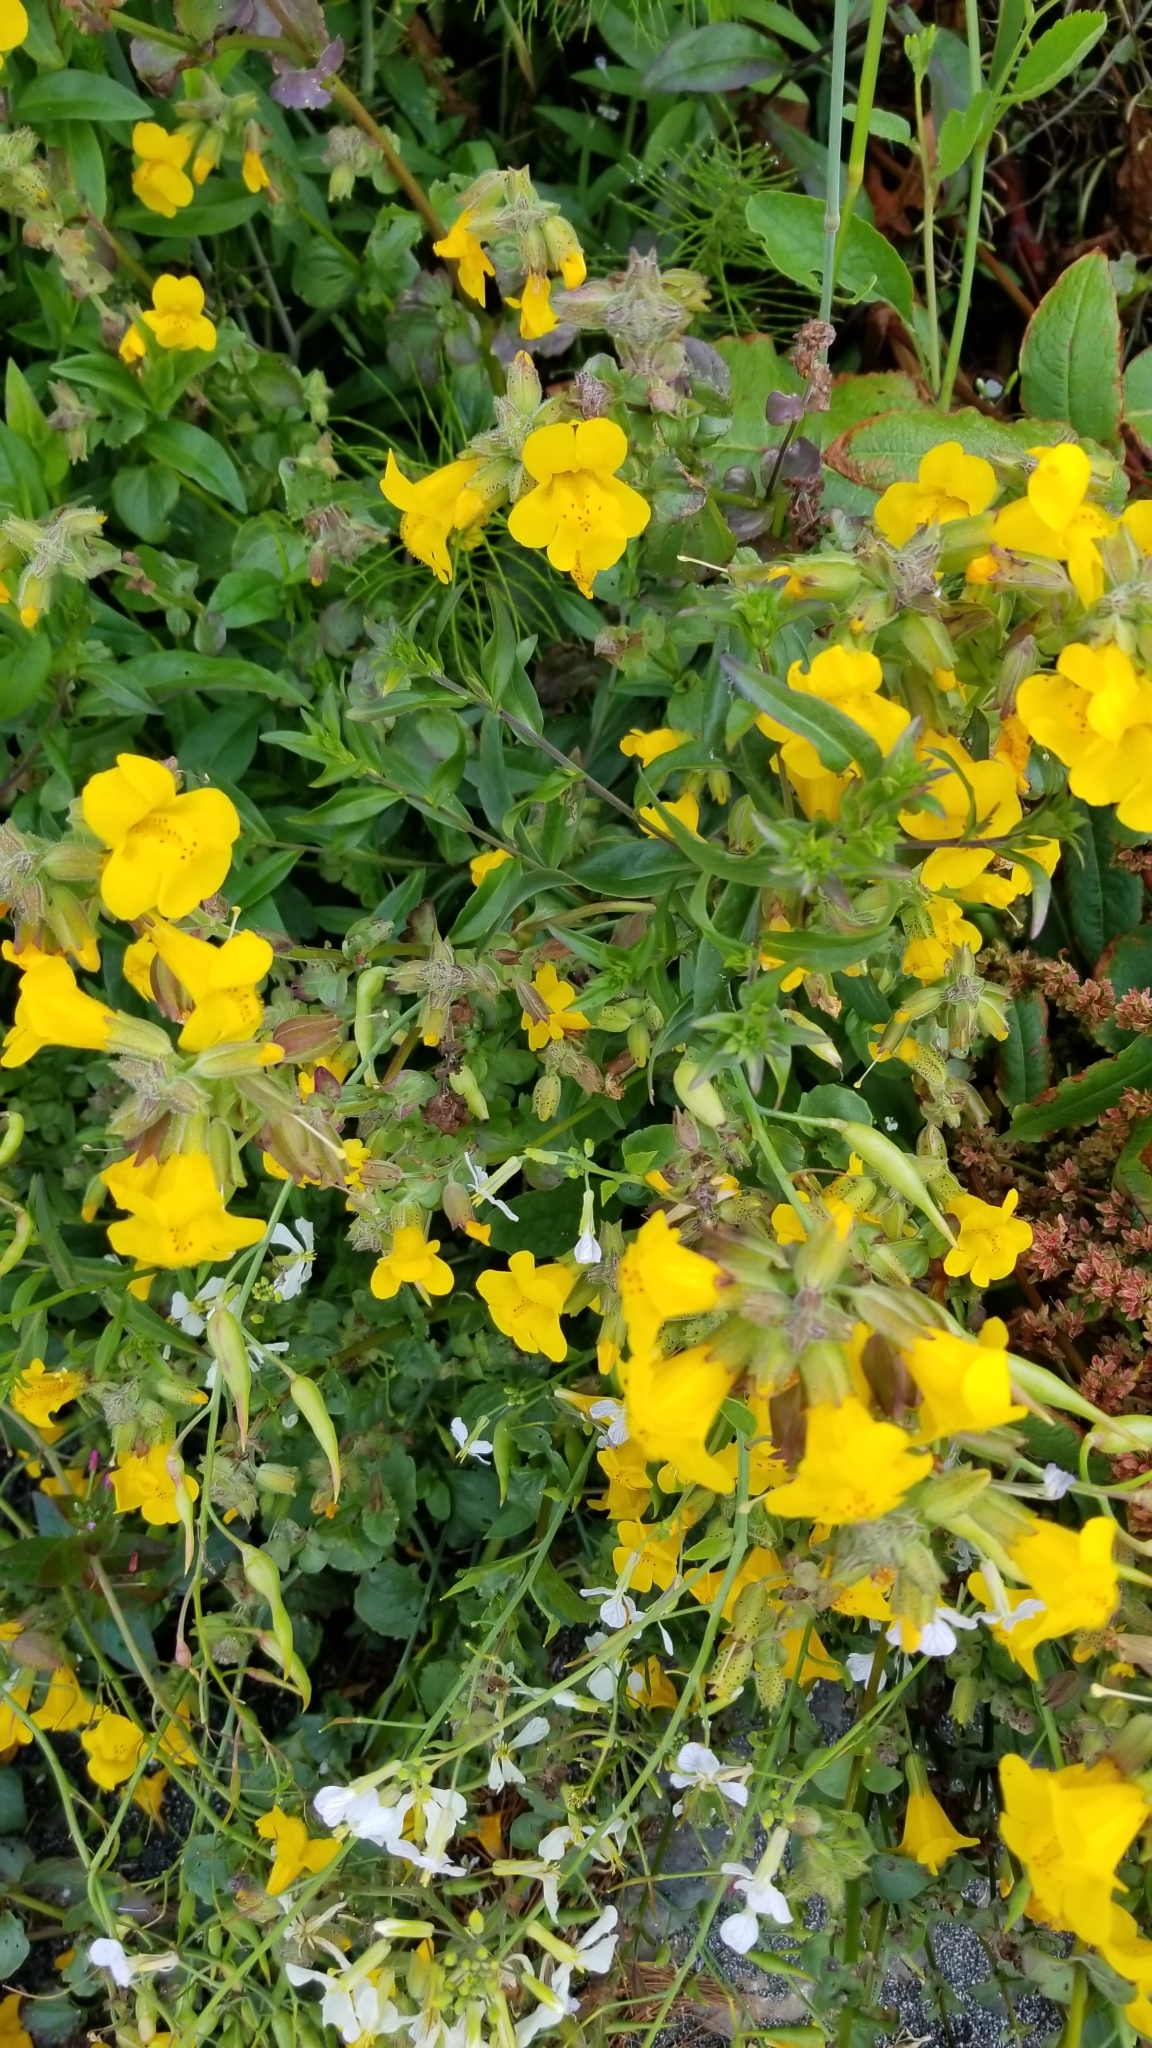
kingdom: Plantae
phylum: Tracheophyta
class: Magnoliopsida
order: Lamiales
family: Phrymaceae
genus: Erythranthe
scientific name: Erythranthe grandis
